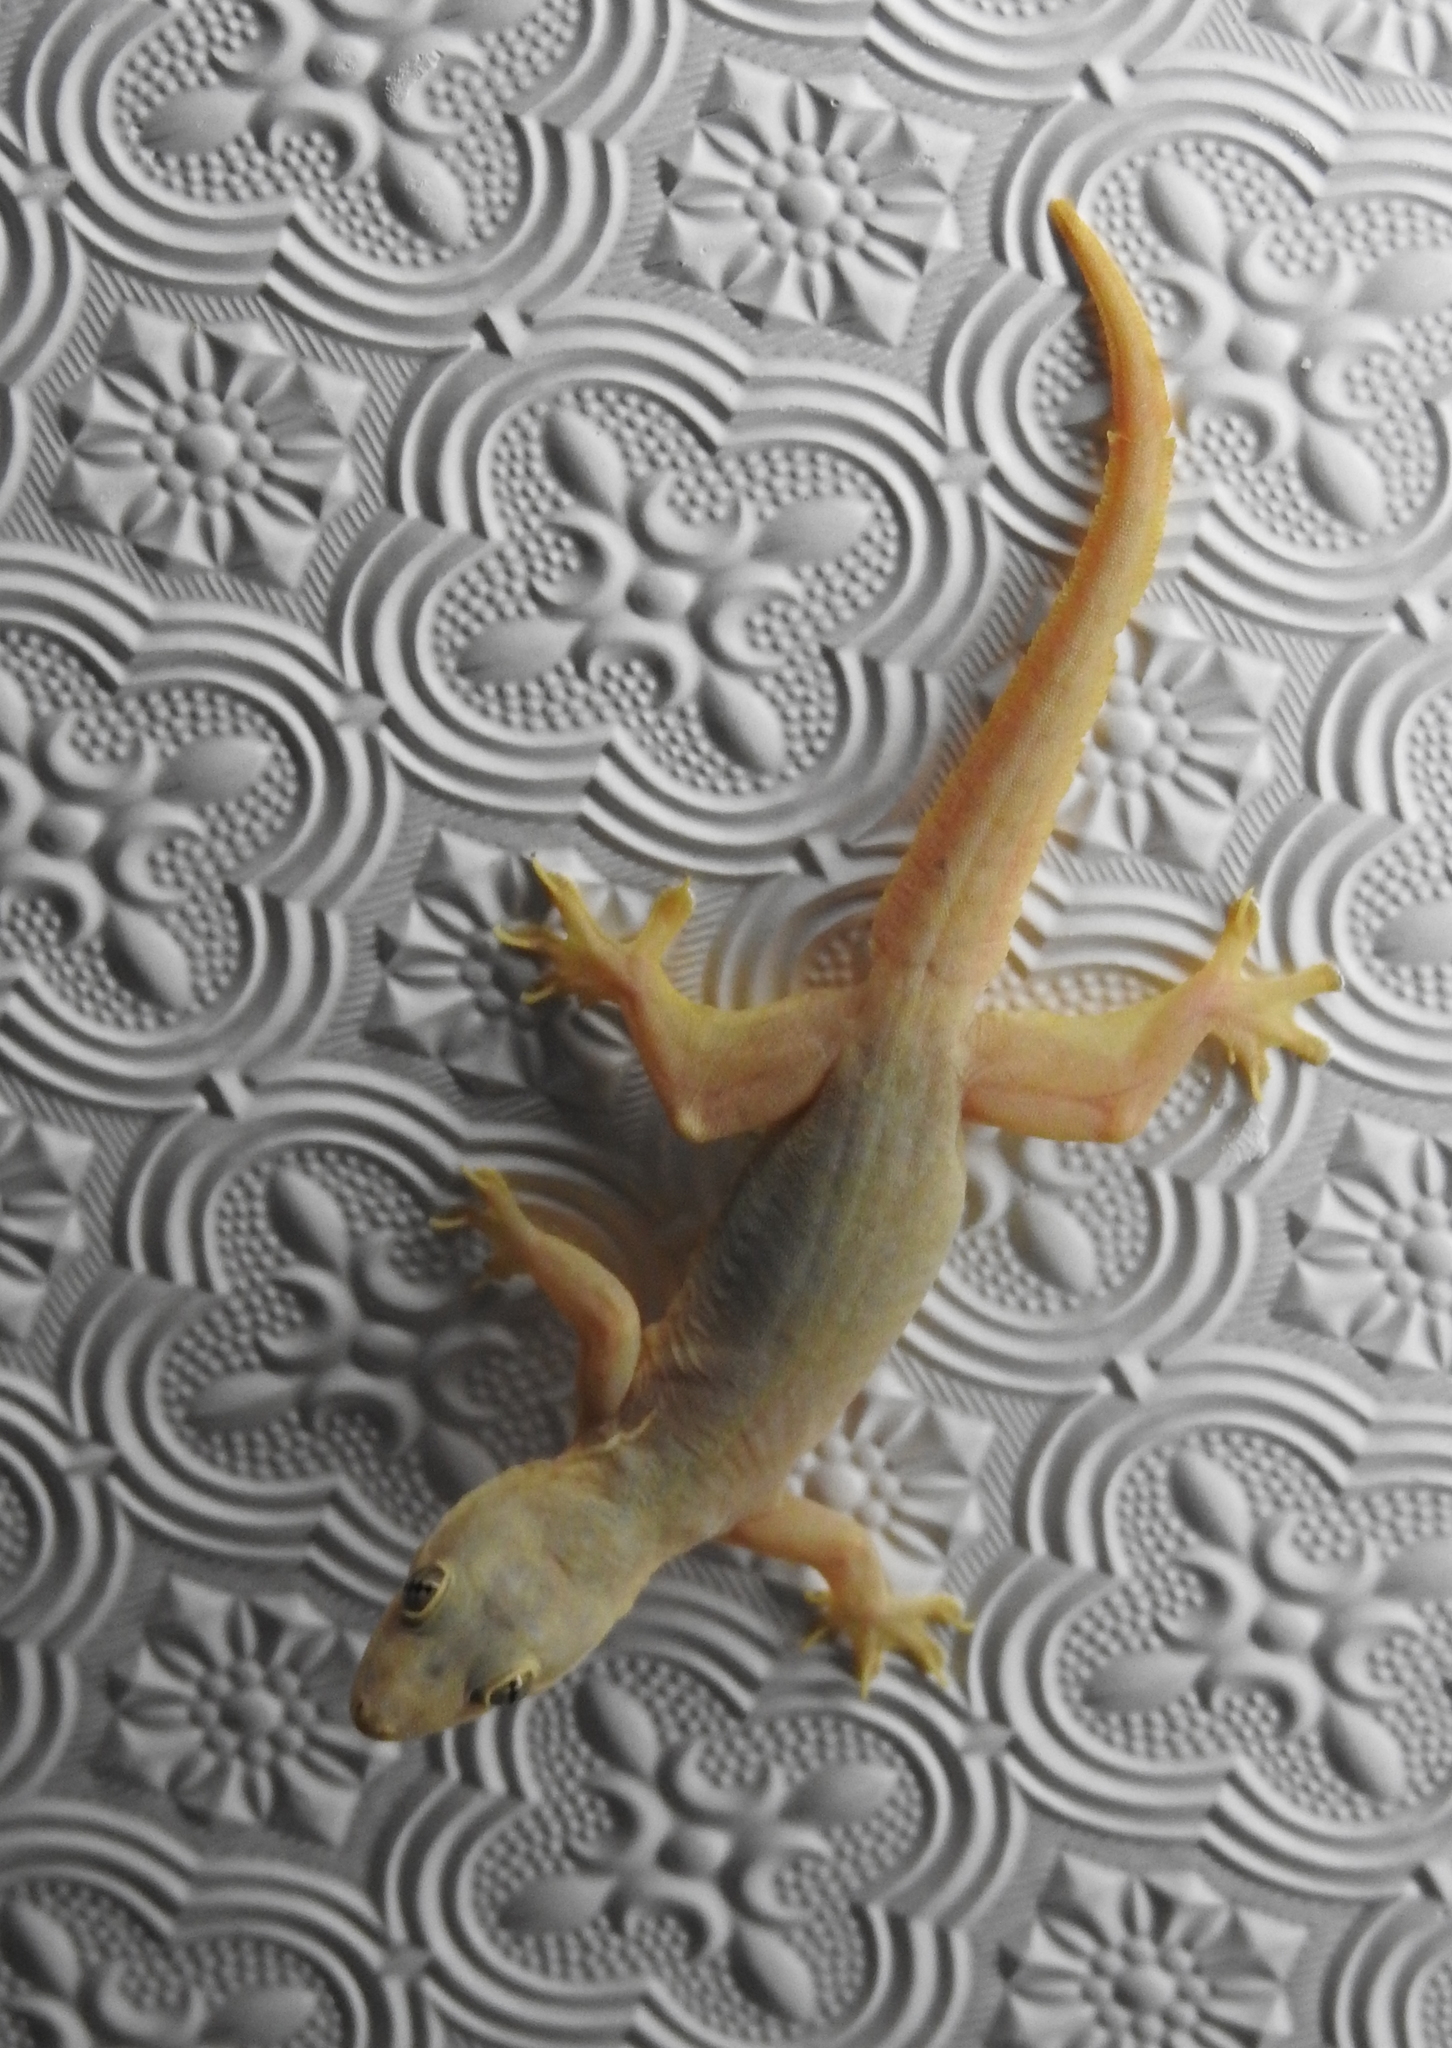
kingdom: Animalia
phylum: Chordata
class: Squamata
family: Gekkonidae
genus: Hemidactylus
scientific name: Hemidactylus platyurus
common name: Flat-tailed house gecko
